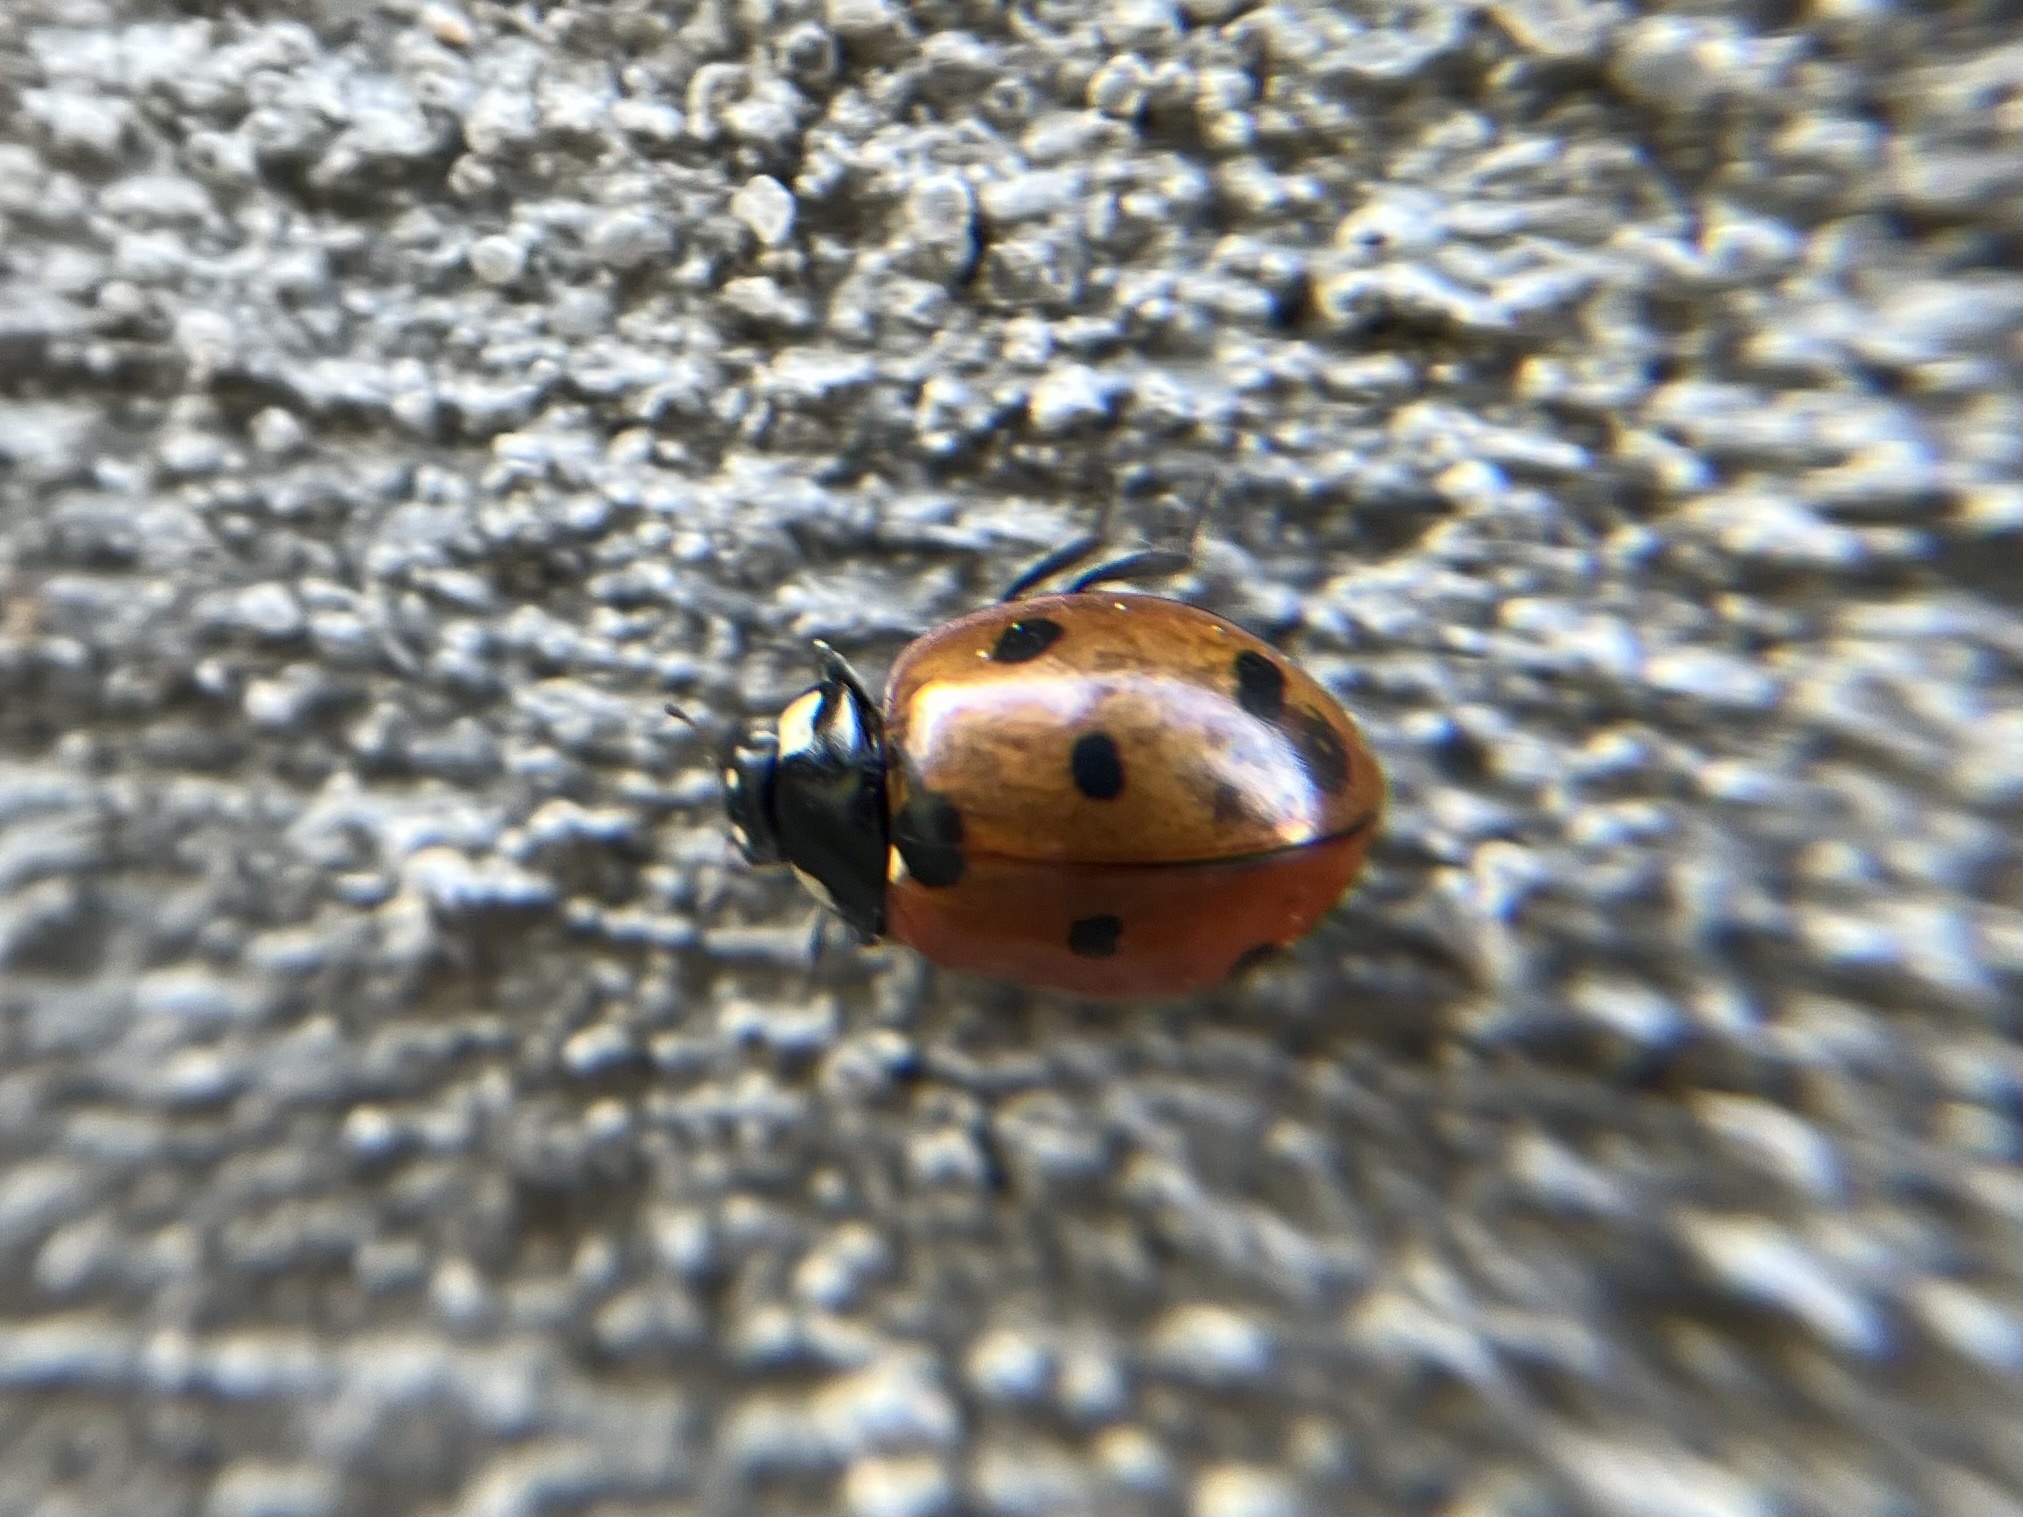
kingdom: Animalia
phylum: Arthropoda
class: Insecta
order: Coleoptera
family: Coccinellidae
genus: Coccinella
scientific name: Coccinella septempunctata
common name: Sevenspotted lady beetle
